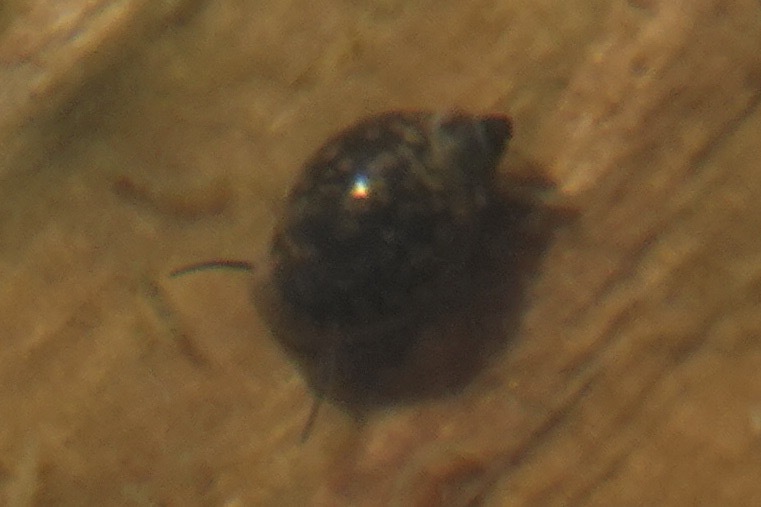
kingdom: Animalia
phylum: Mollusca
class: Gastropoda
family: Physidae
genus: Physella
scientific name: Physella acuta
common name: European physa
